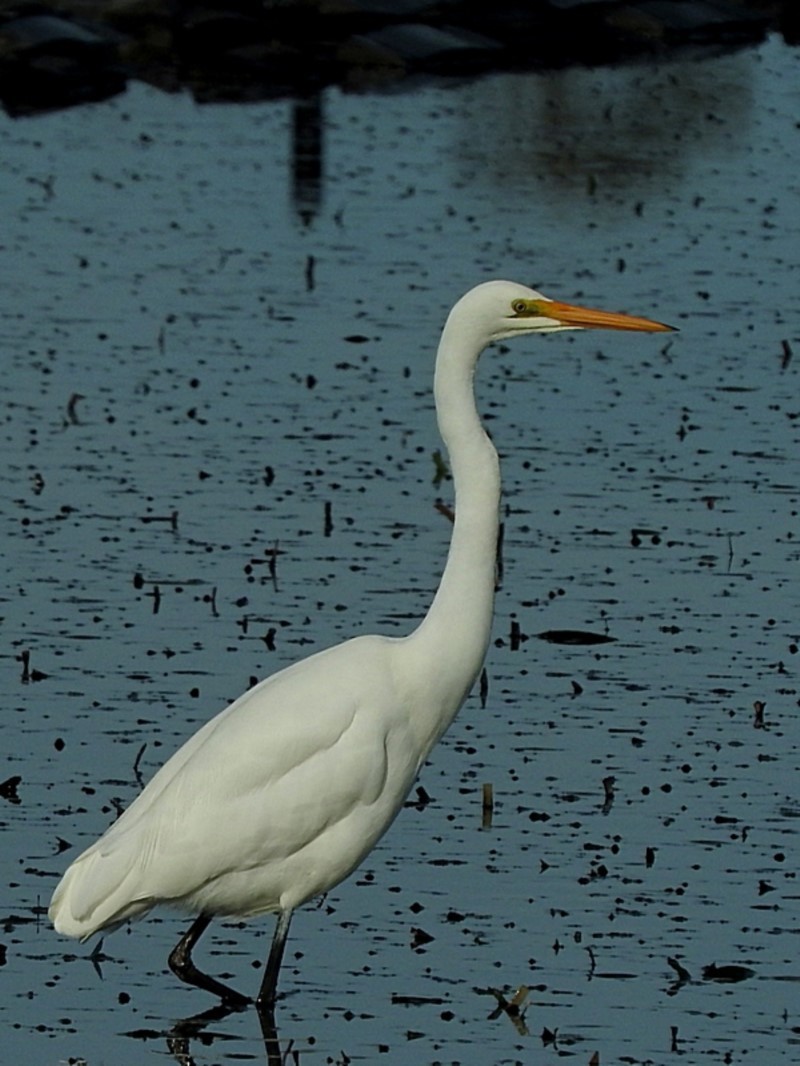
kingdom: Animalia
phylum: Chordata
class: Aves
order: Pelecaniformes
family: Ardeidae
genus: Ardea
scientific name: Ardea alba
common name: Great egret
